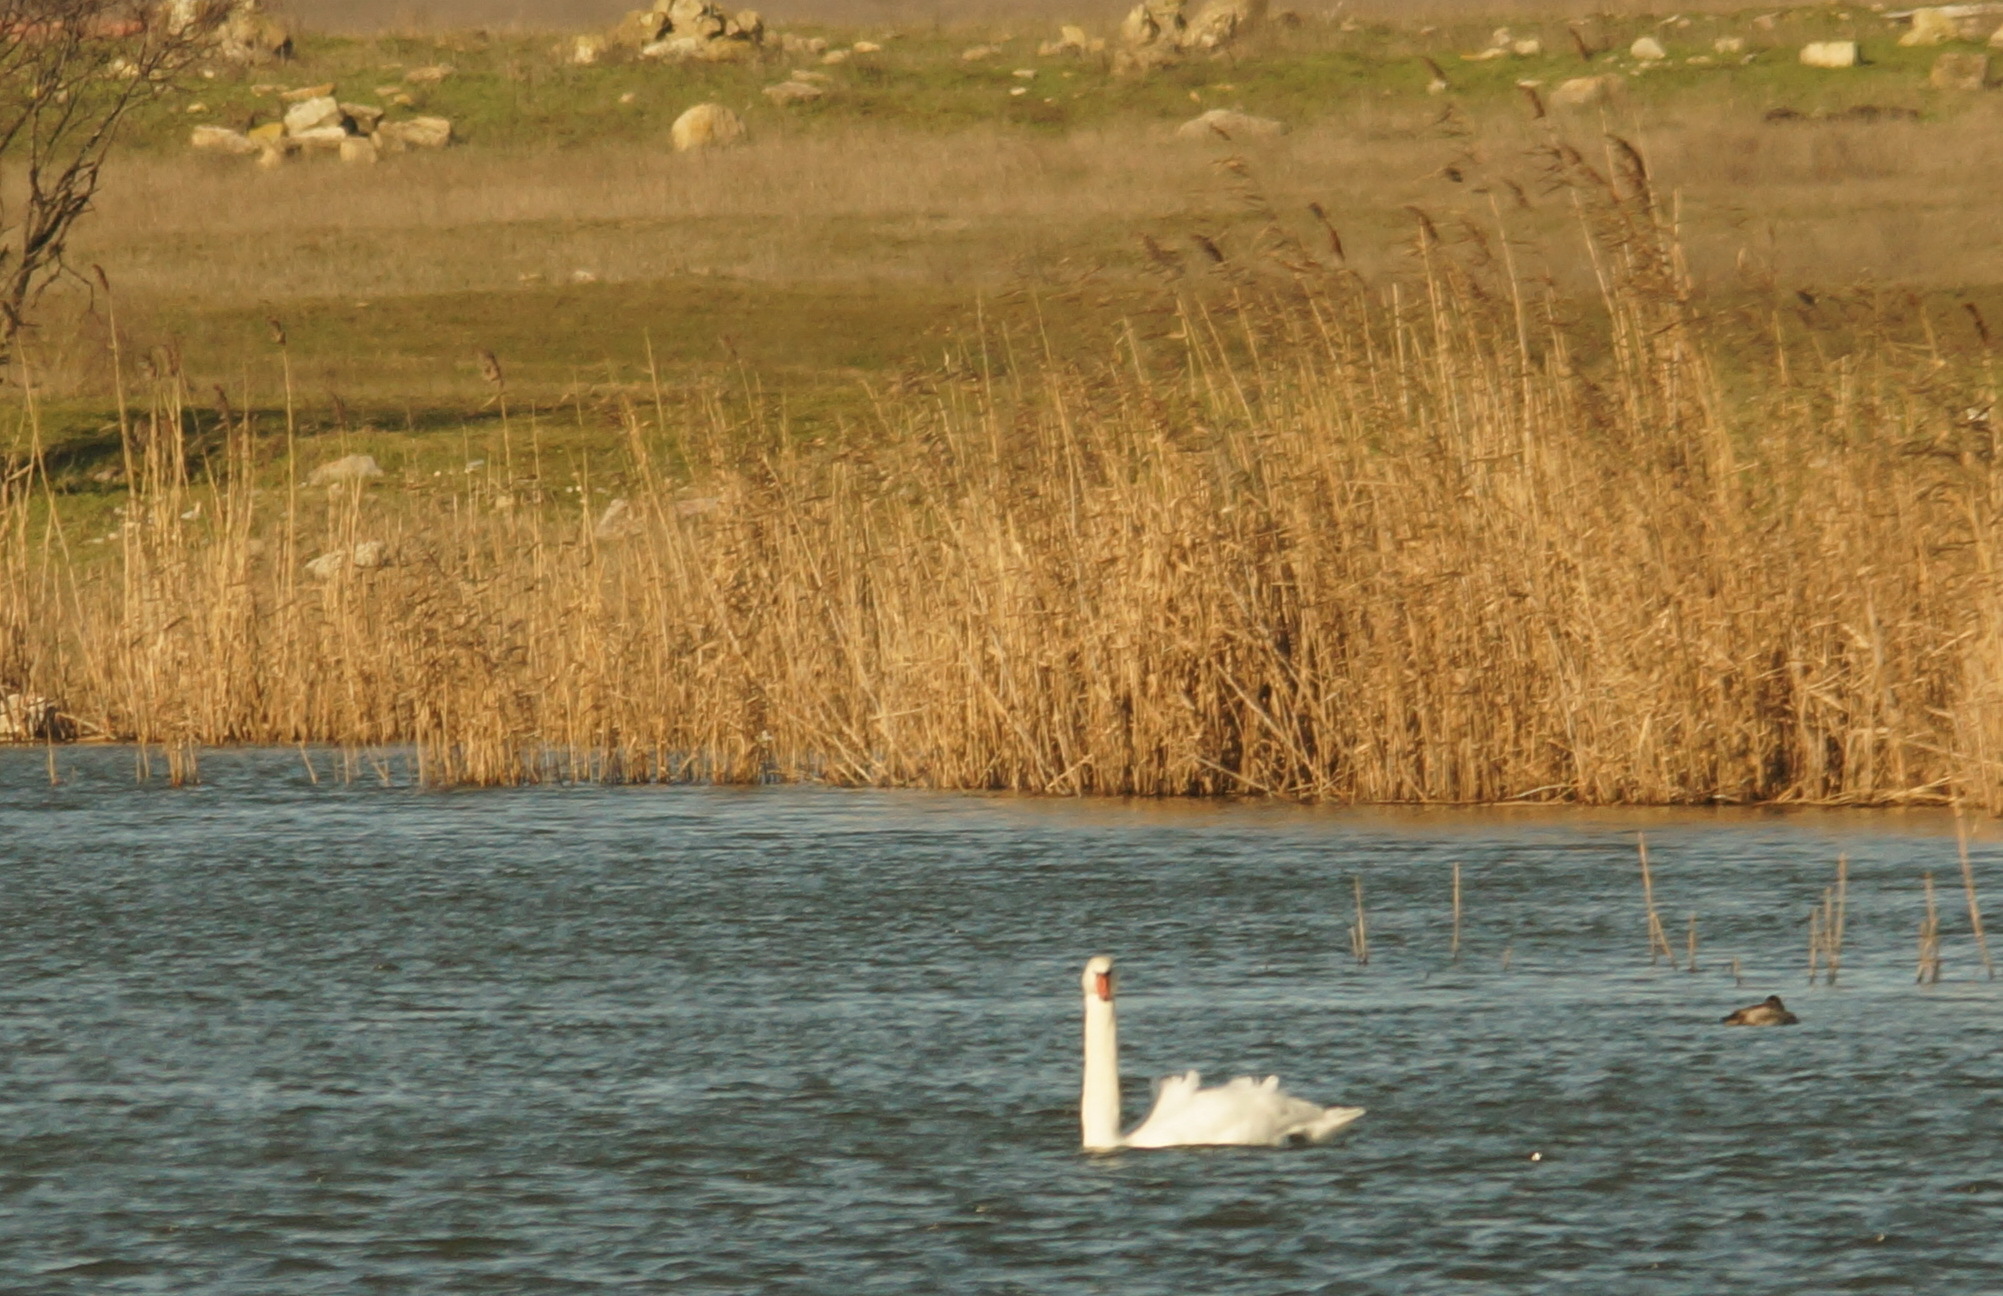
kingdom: Animalia
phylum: Chordata
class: Aves
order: Anseriformes
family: Anatidae
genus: Cygnus
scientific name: Cygnus olor
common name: Mute swan
